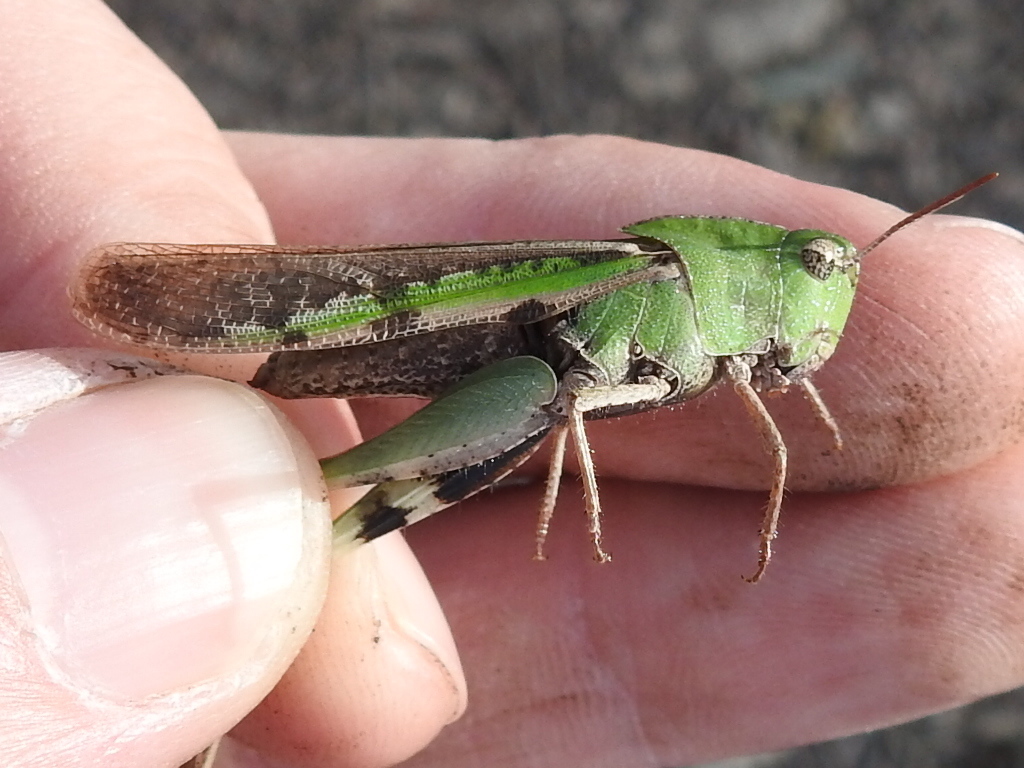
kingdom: Animalia
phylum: Arthropoda
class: Insecta
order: Orthoptera
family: Acrididae
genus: Chortophaga
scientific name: Chortophaga viridifasciata
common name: Green-striped grasshopper
